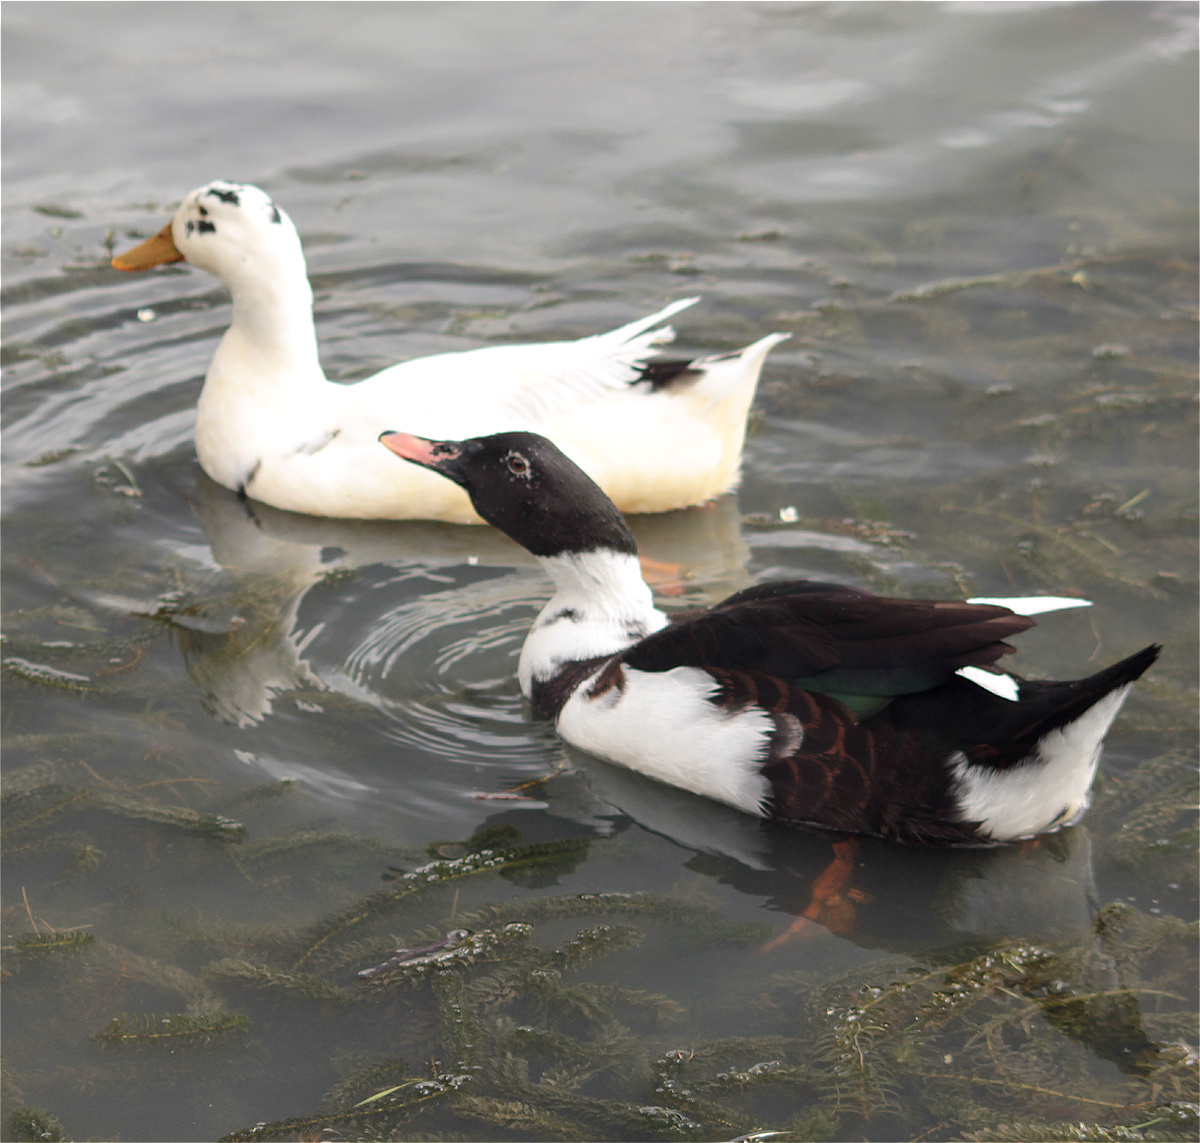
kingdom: Animalia
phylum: Chordata
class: Aves
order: Anseriformes
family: Anatidae
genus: Anas
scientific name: Anas platyrhynchos
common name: Mallard
